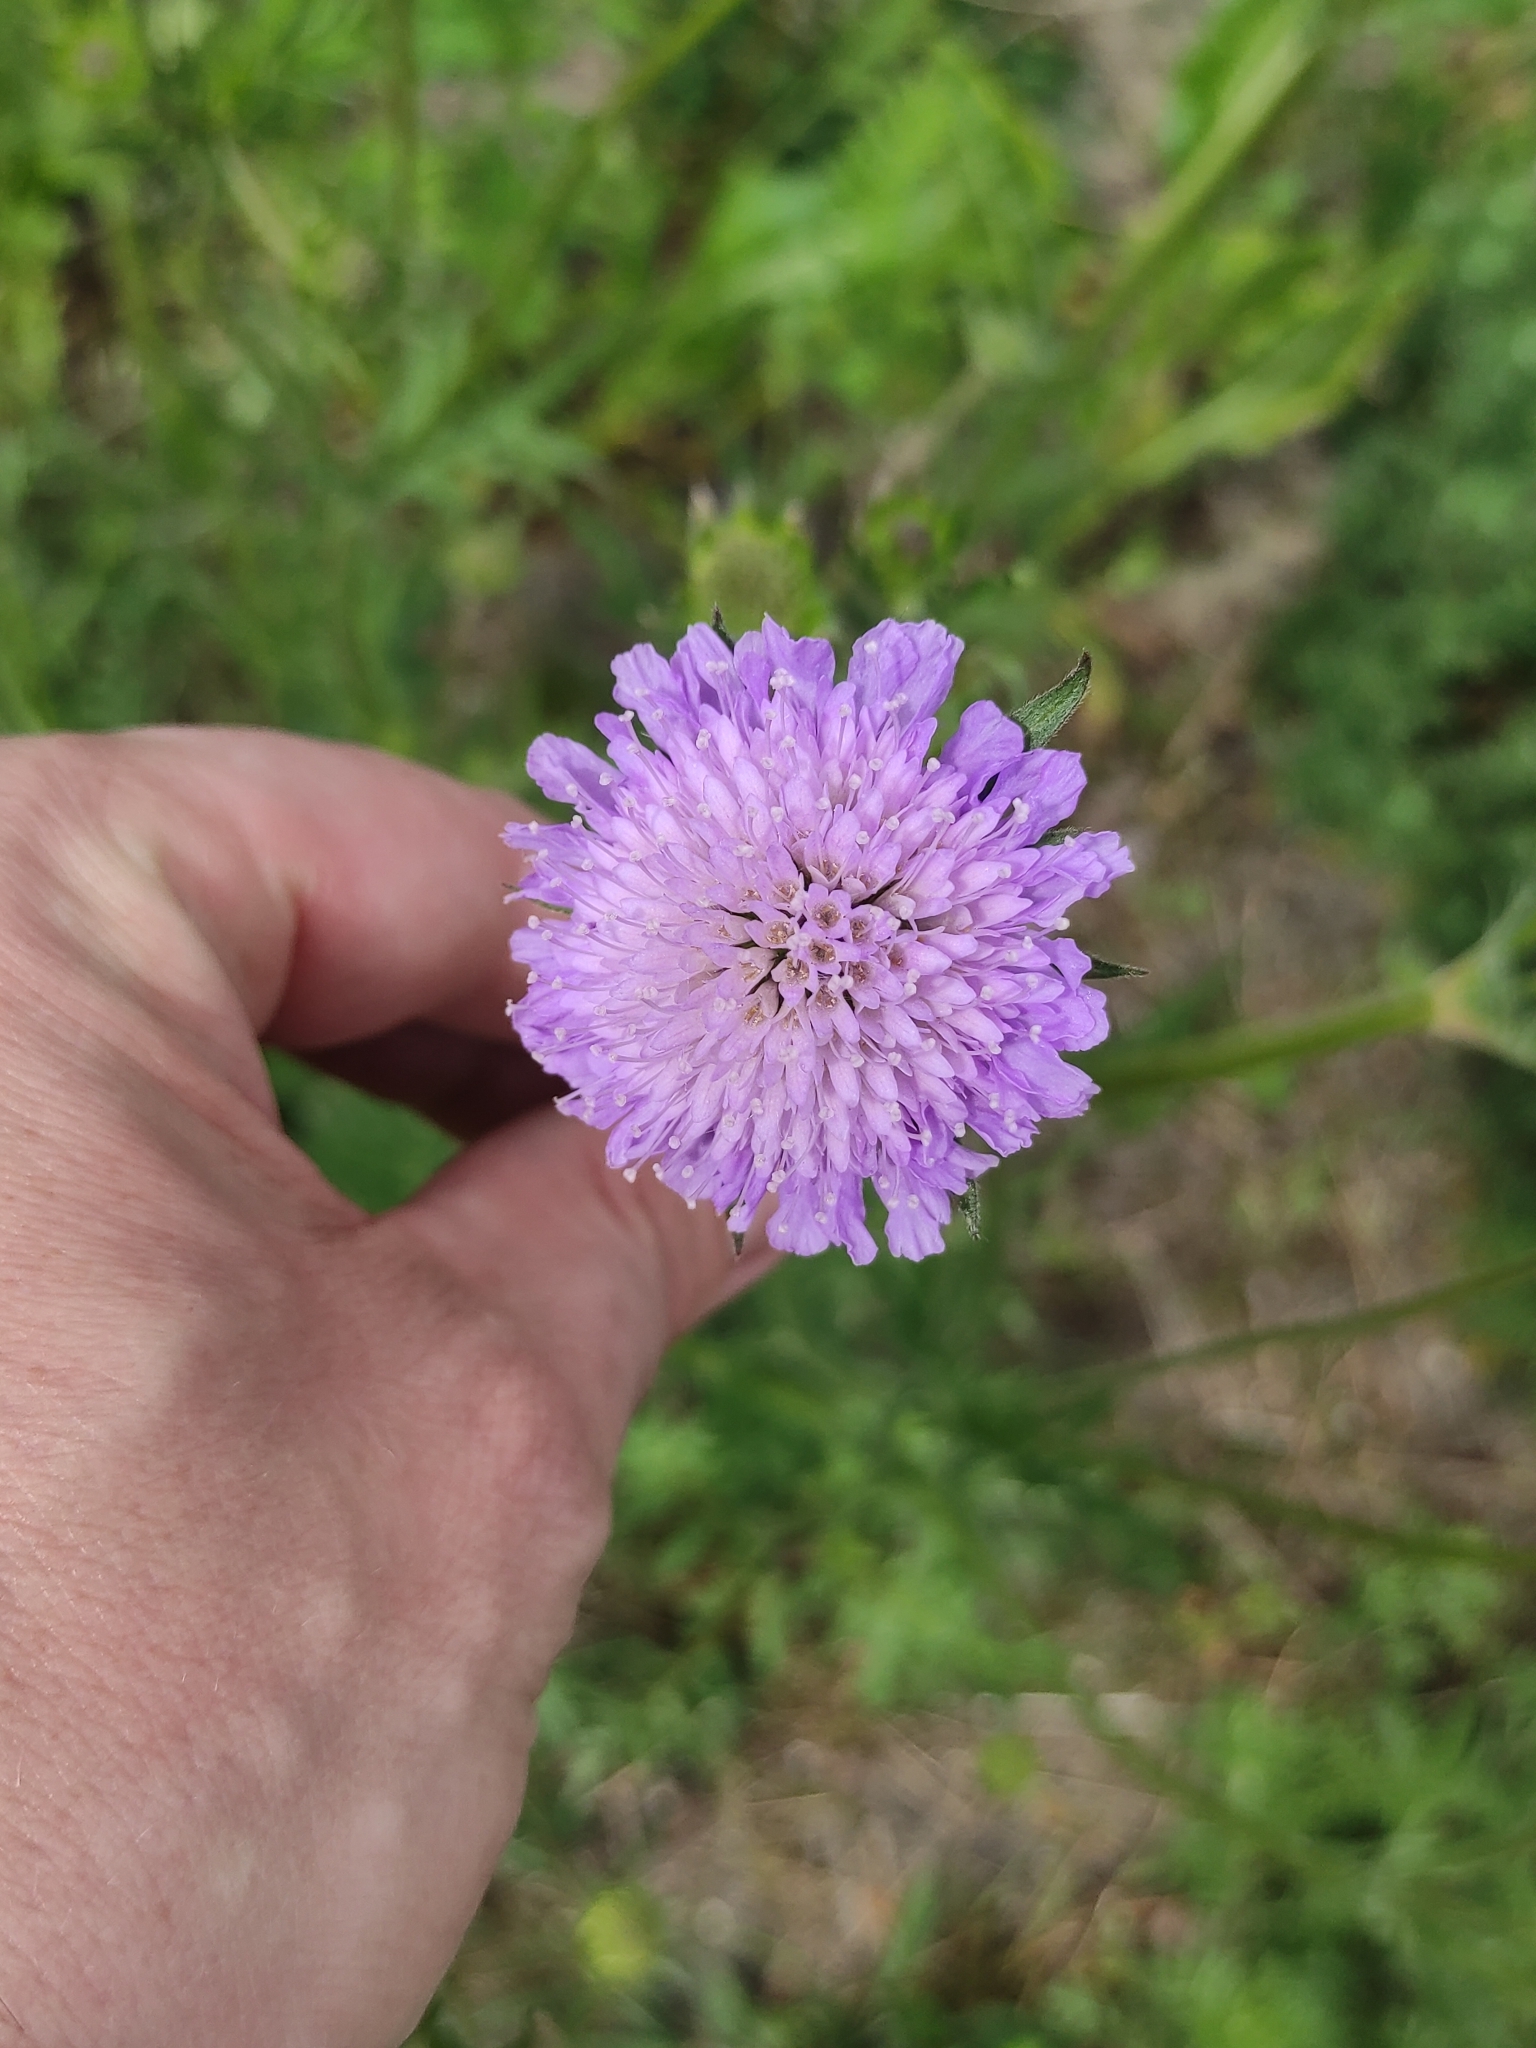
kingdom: Plantae
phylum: Tracheophyta
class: Magnoliopsida
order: Dipsacales
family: Caprifoliaceae
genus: Knautia
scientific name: Knautia arvensis
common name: Field scabiosa
